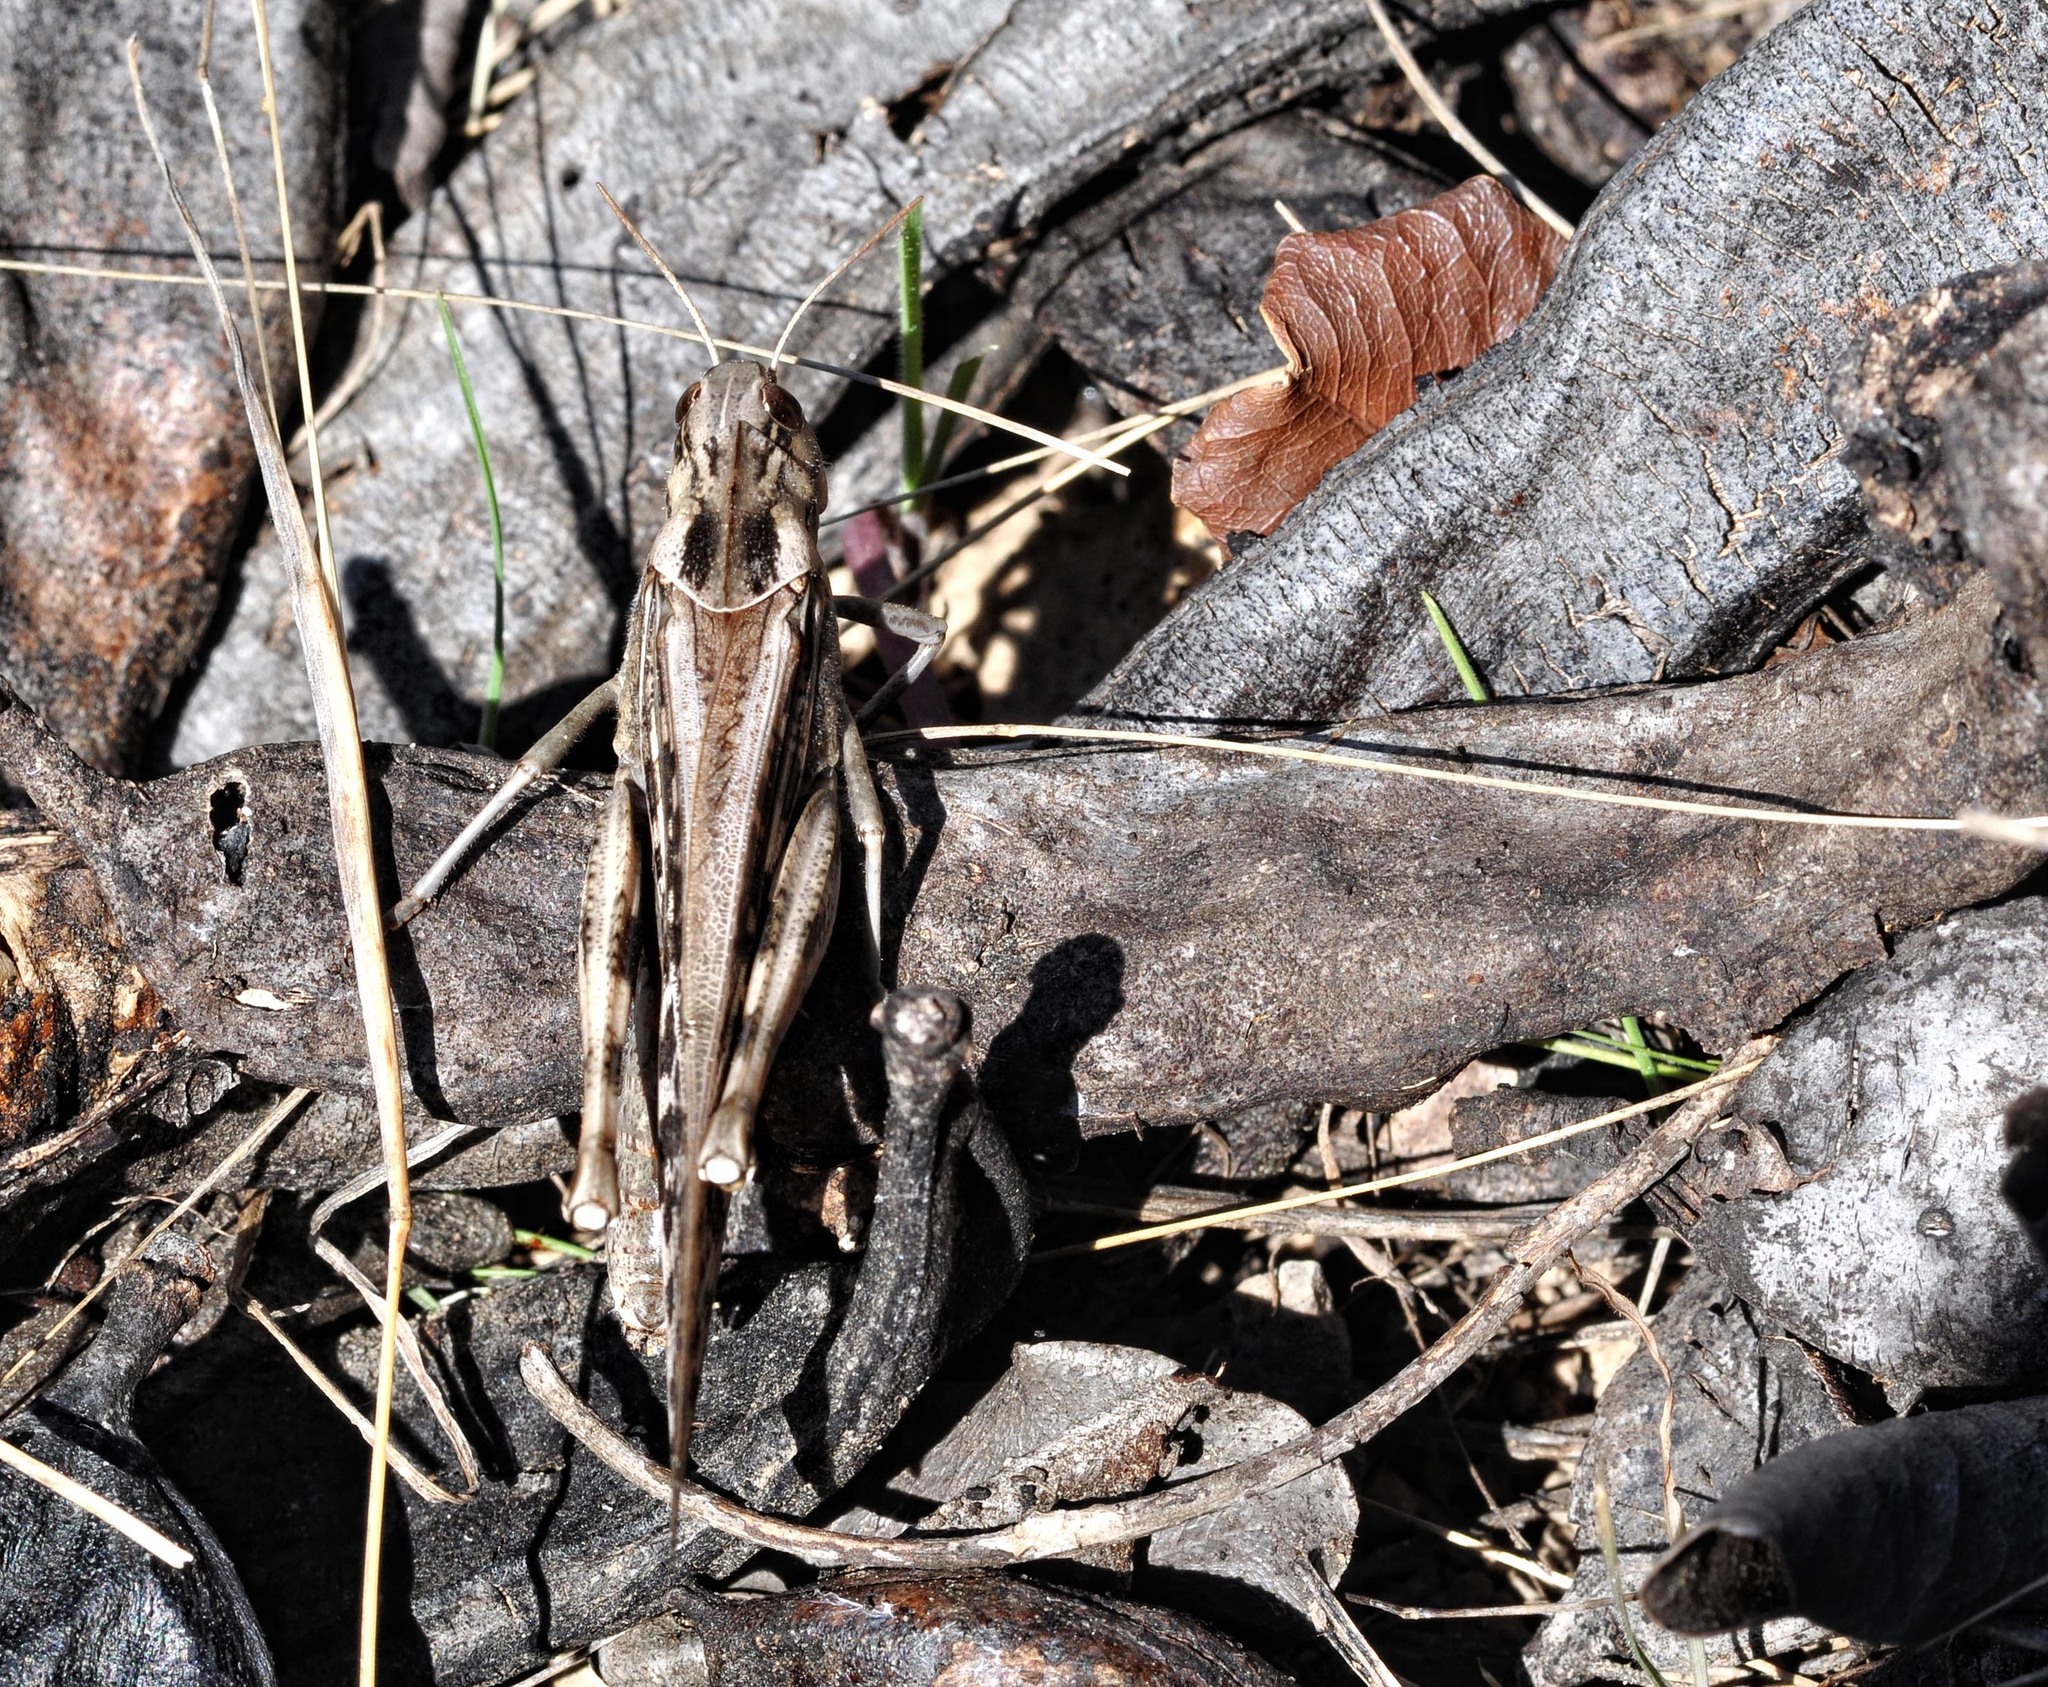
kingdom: Animalia
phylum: Arthropoda
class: Insecta
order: Orthoptera
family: Acrididae
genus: Locusta
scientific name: Locusta migratoria
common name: Migratory locust
